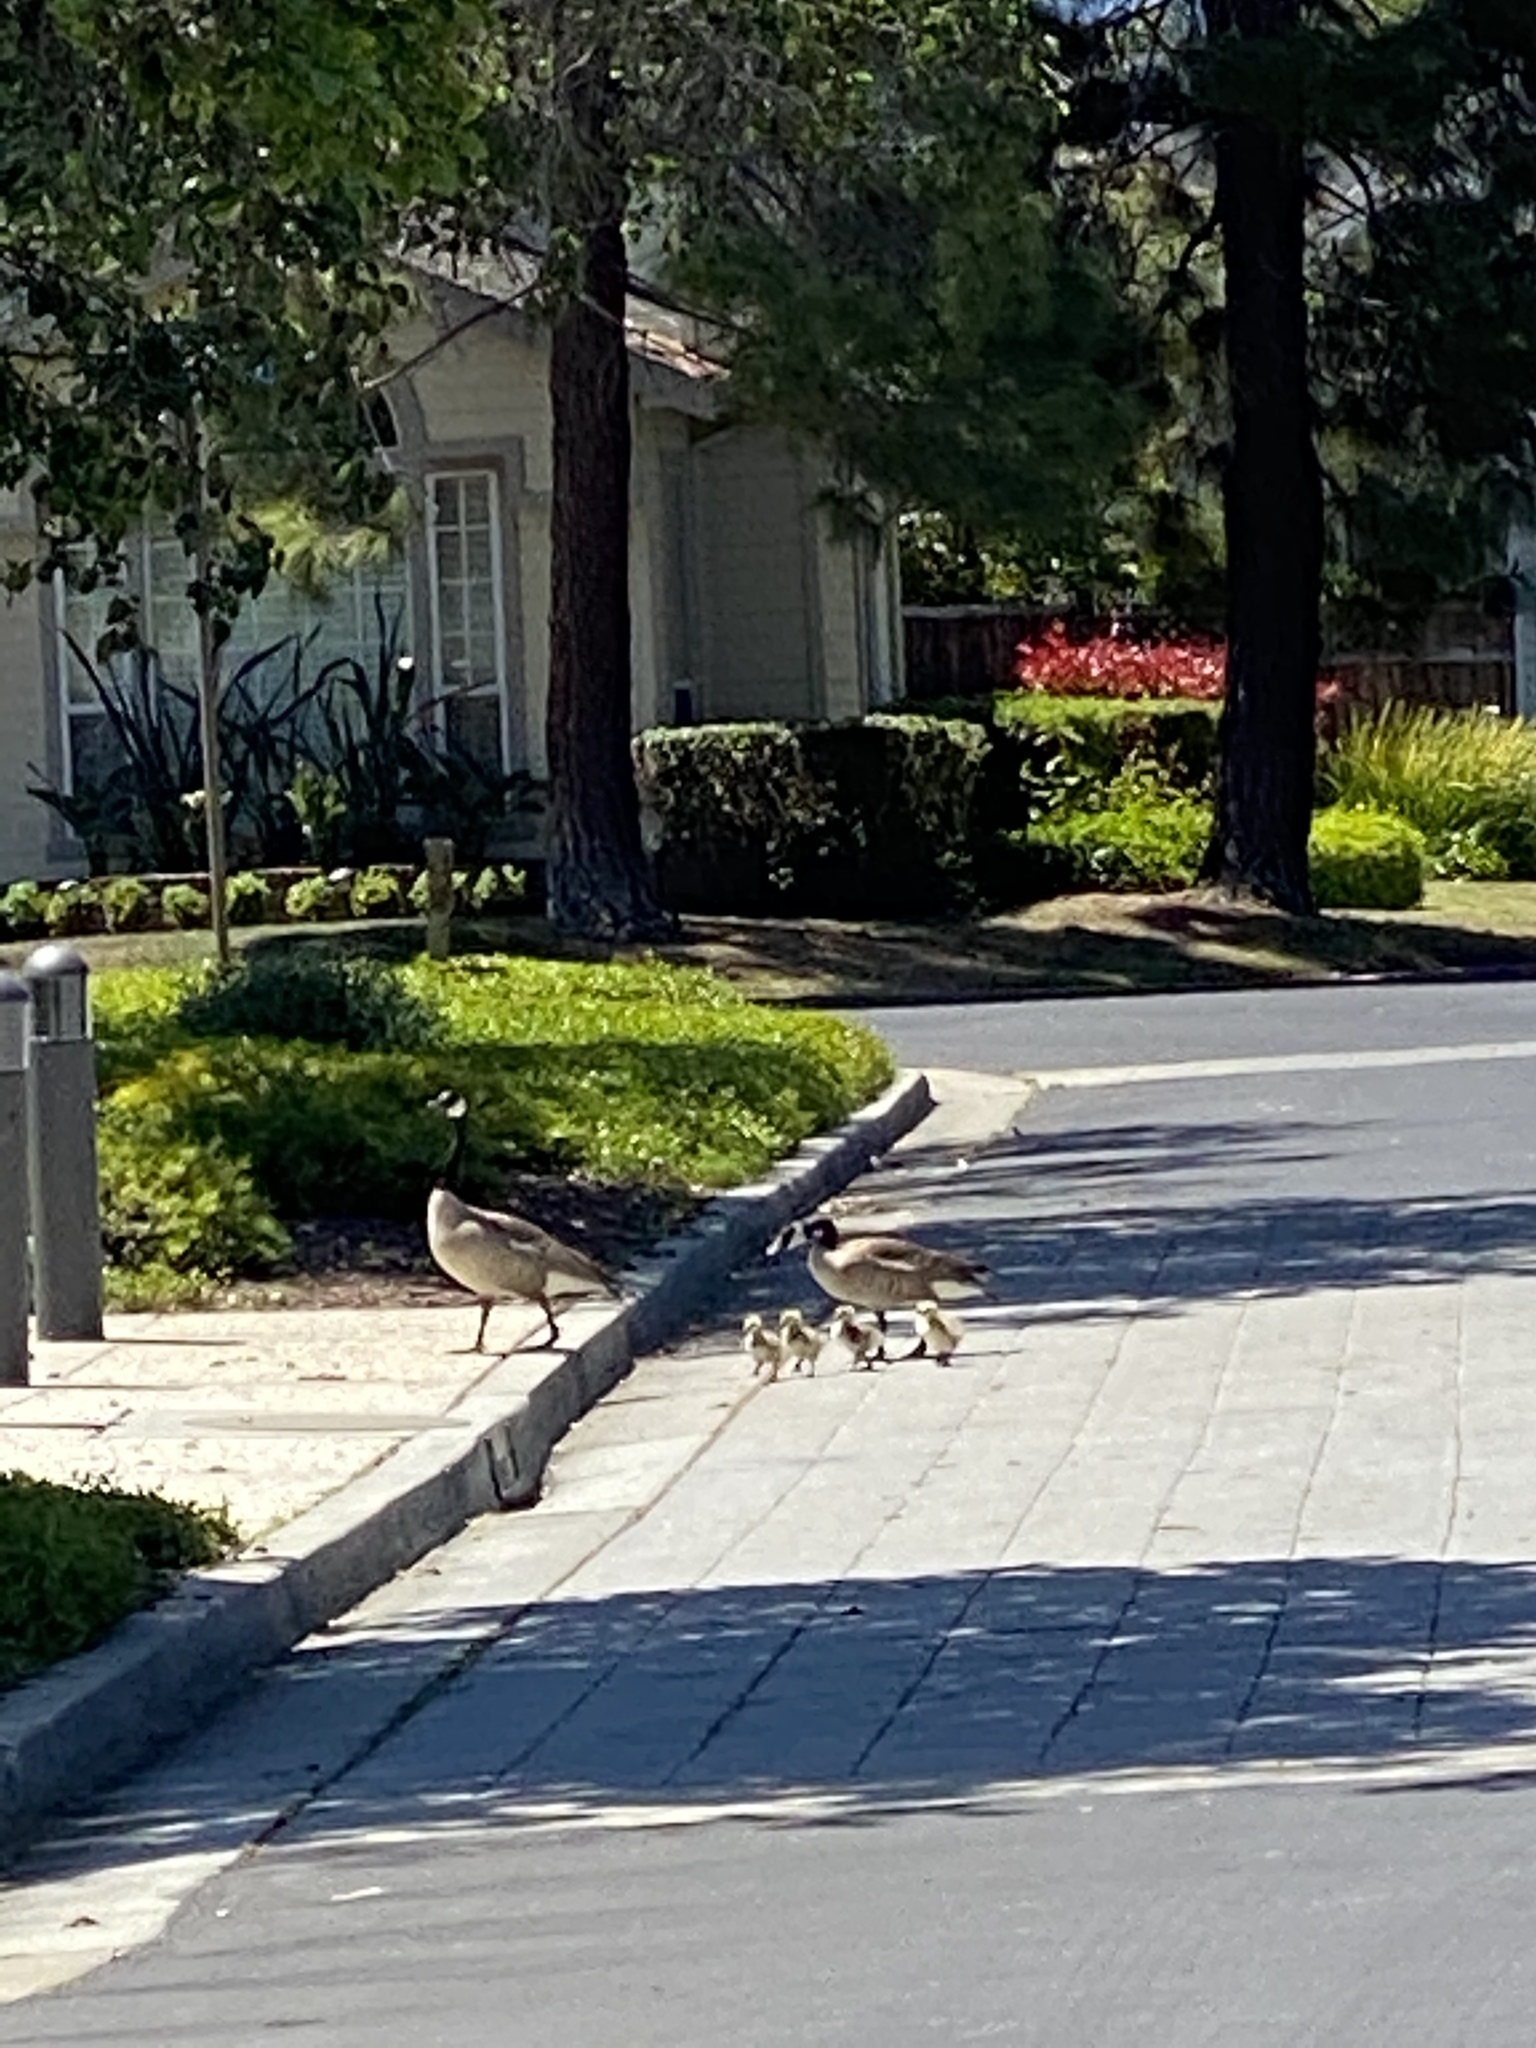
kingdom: Animalia
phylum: Chordata
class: Aves
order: Anseriformes
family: Anatidae
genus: Branta
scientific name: Branta canadensis
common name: Canada goose
